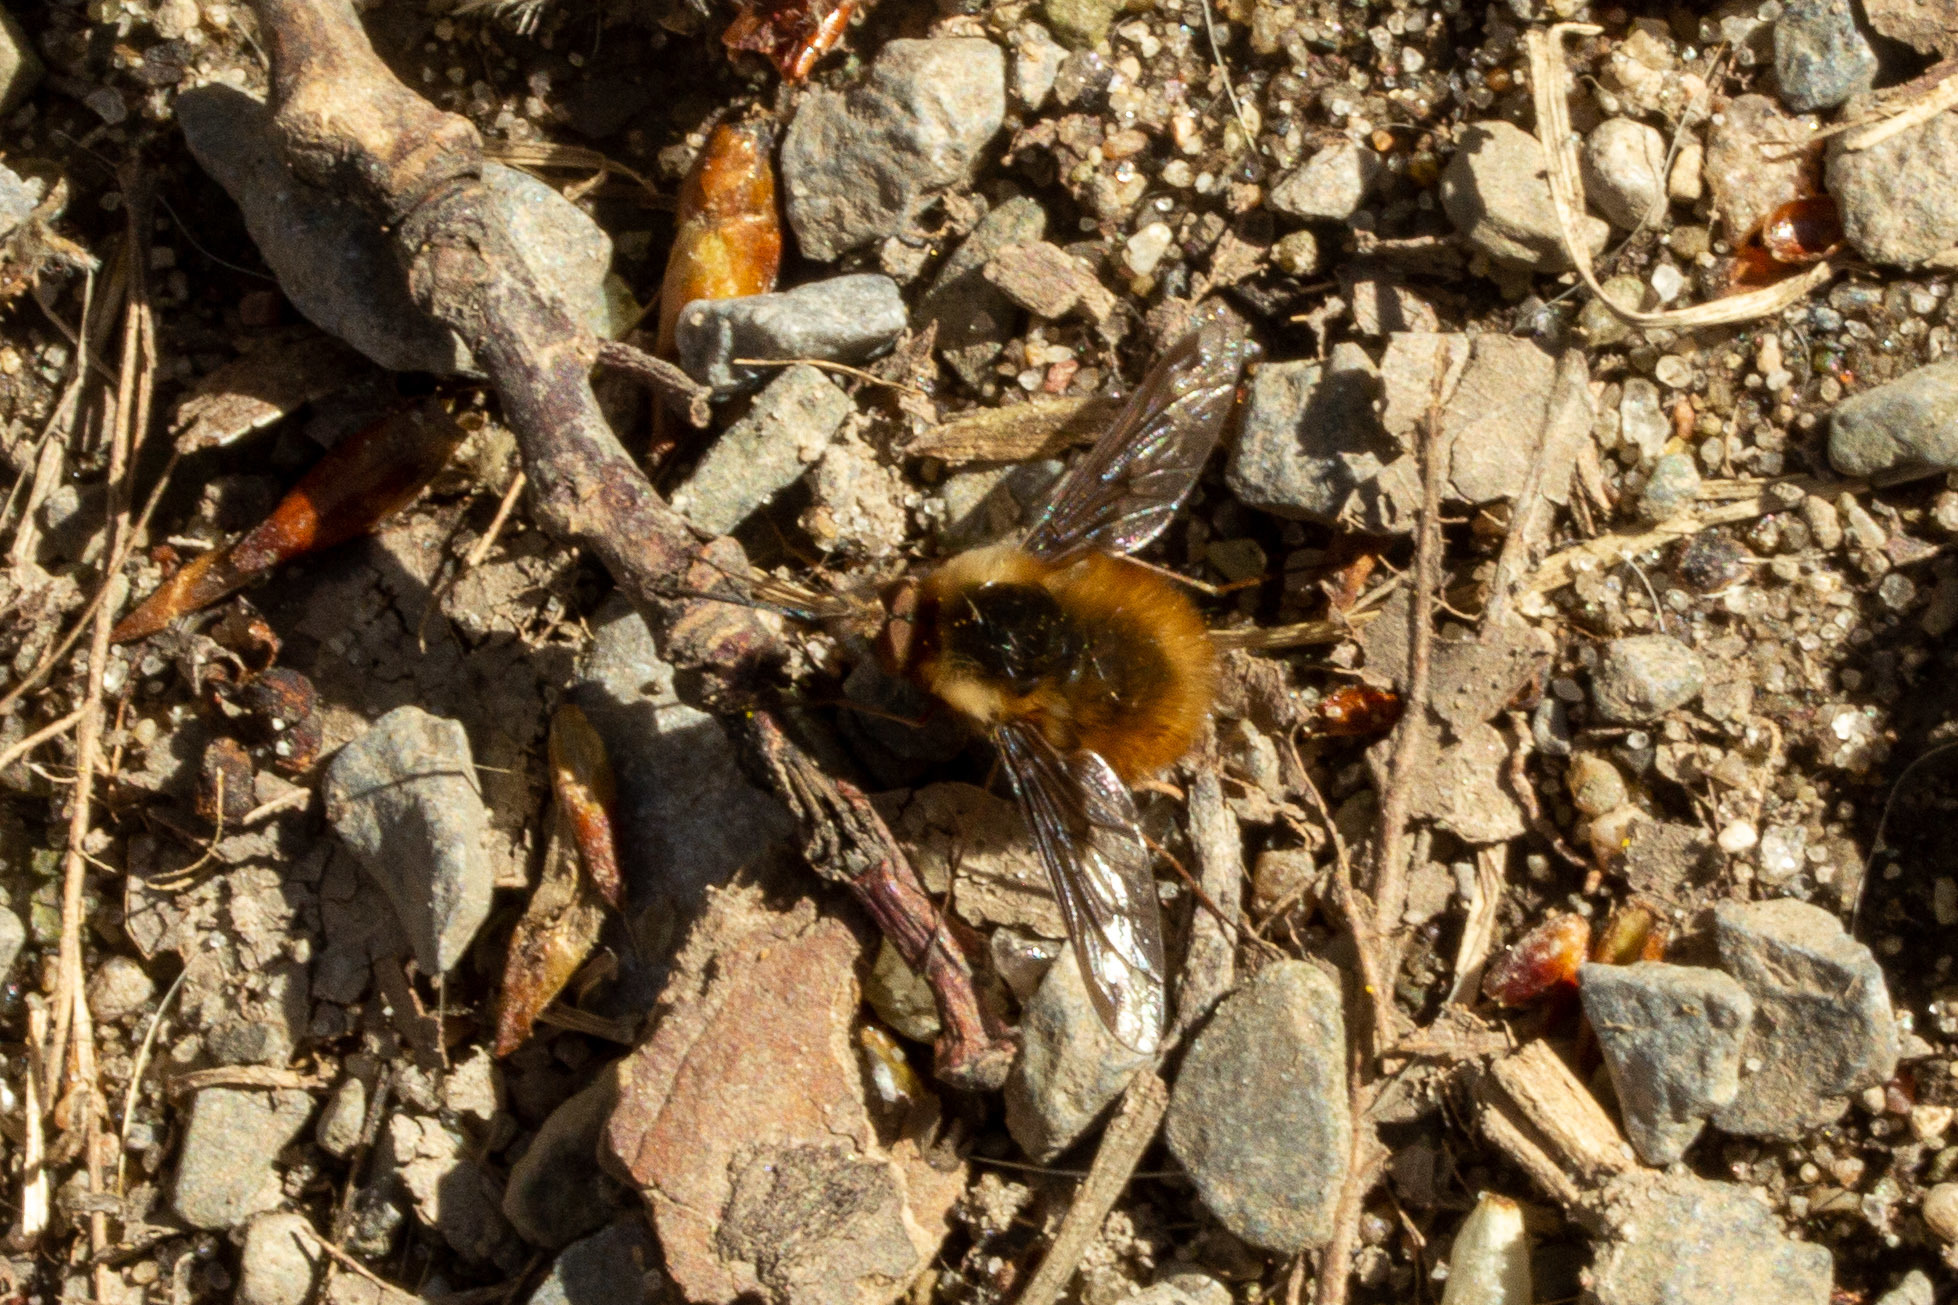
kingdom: Animalia
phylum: Arthropoda
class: Insecta
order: Diptera
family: Bombyliidae
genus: Bombylius
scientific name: Bombylius major
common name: Bee fly
